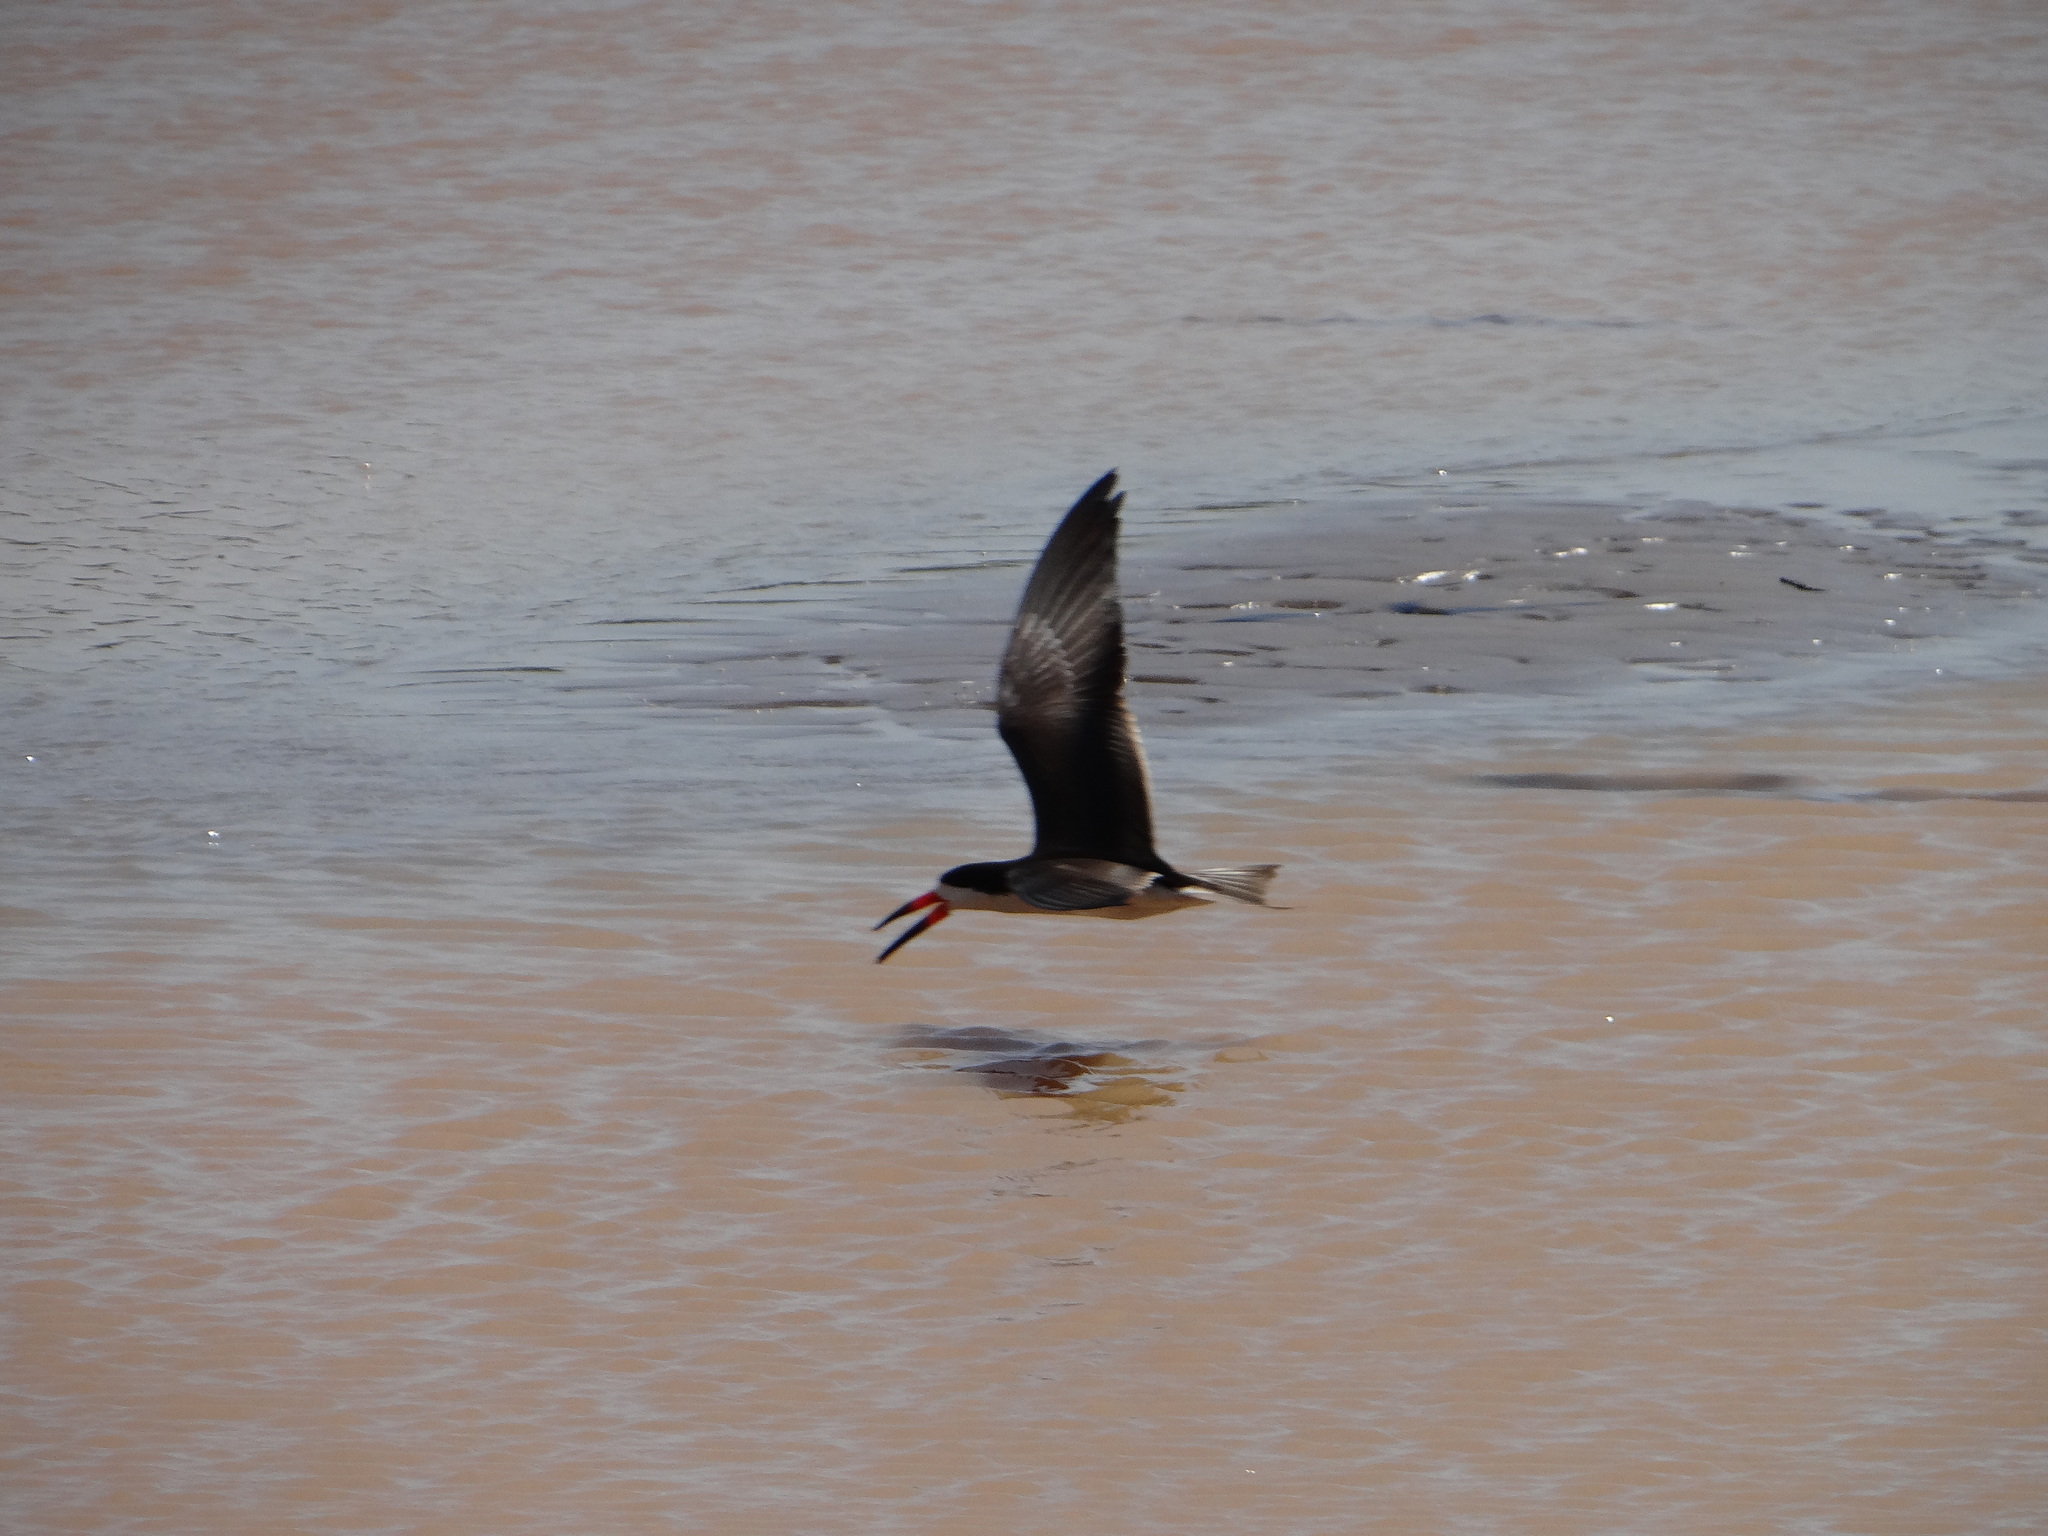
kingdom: Animalia
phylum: Chordata
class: Aves
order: Charadriiformes
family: Laridae
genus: Rynchops
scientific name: Rynchops niger
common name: Black skimmer
